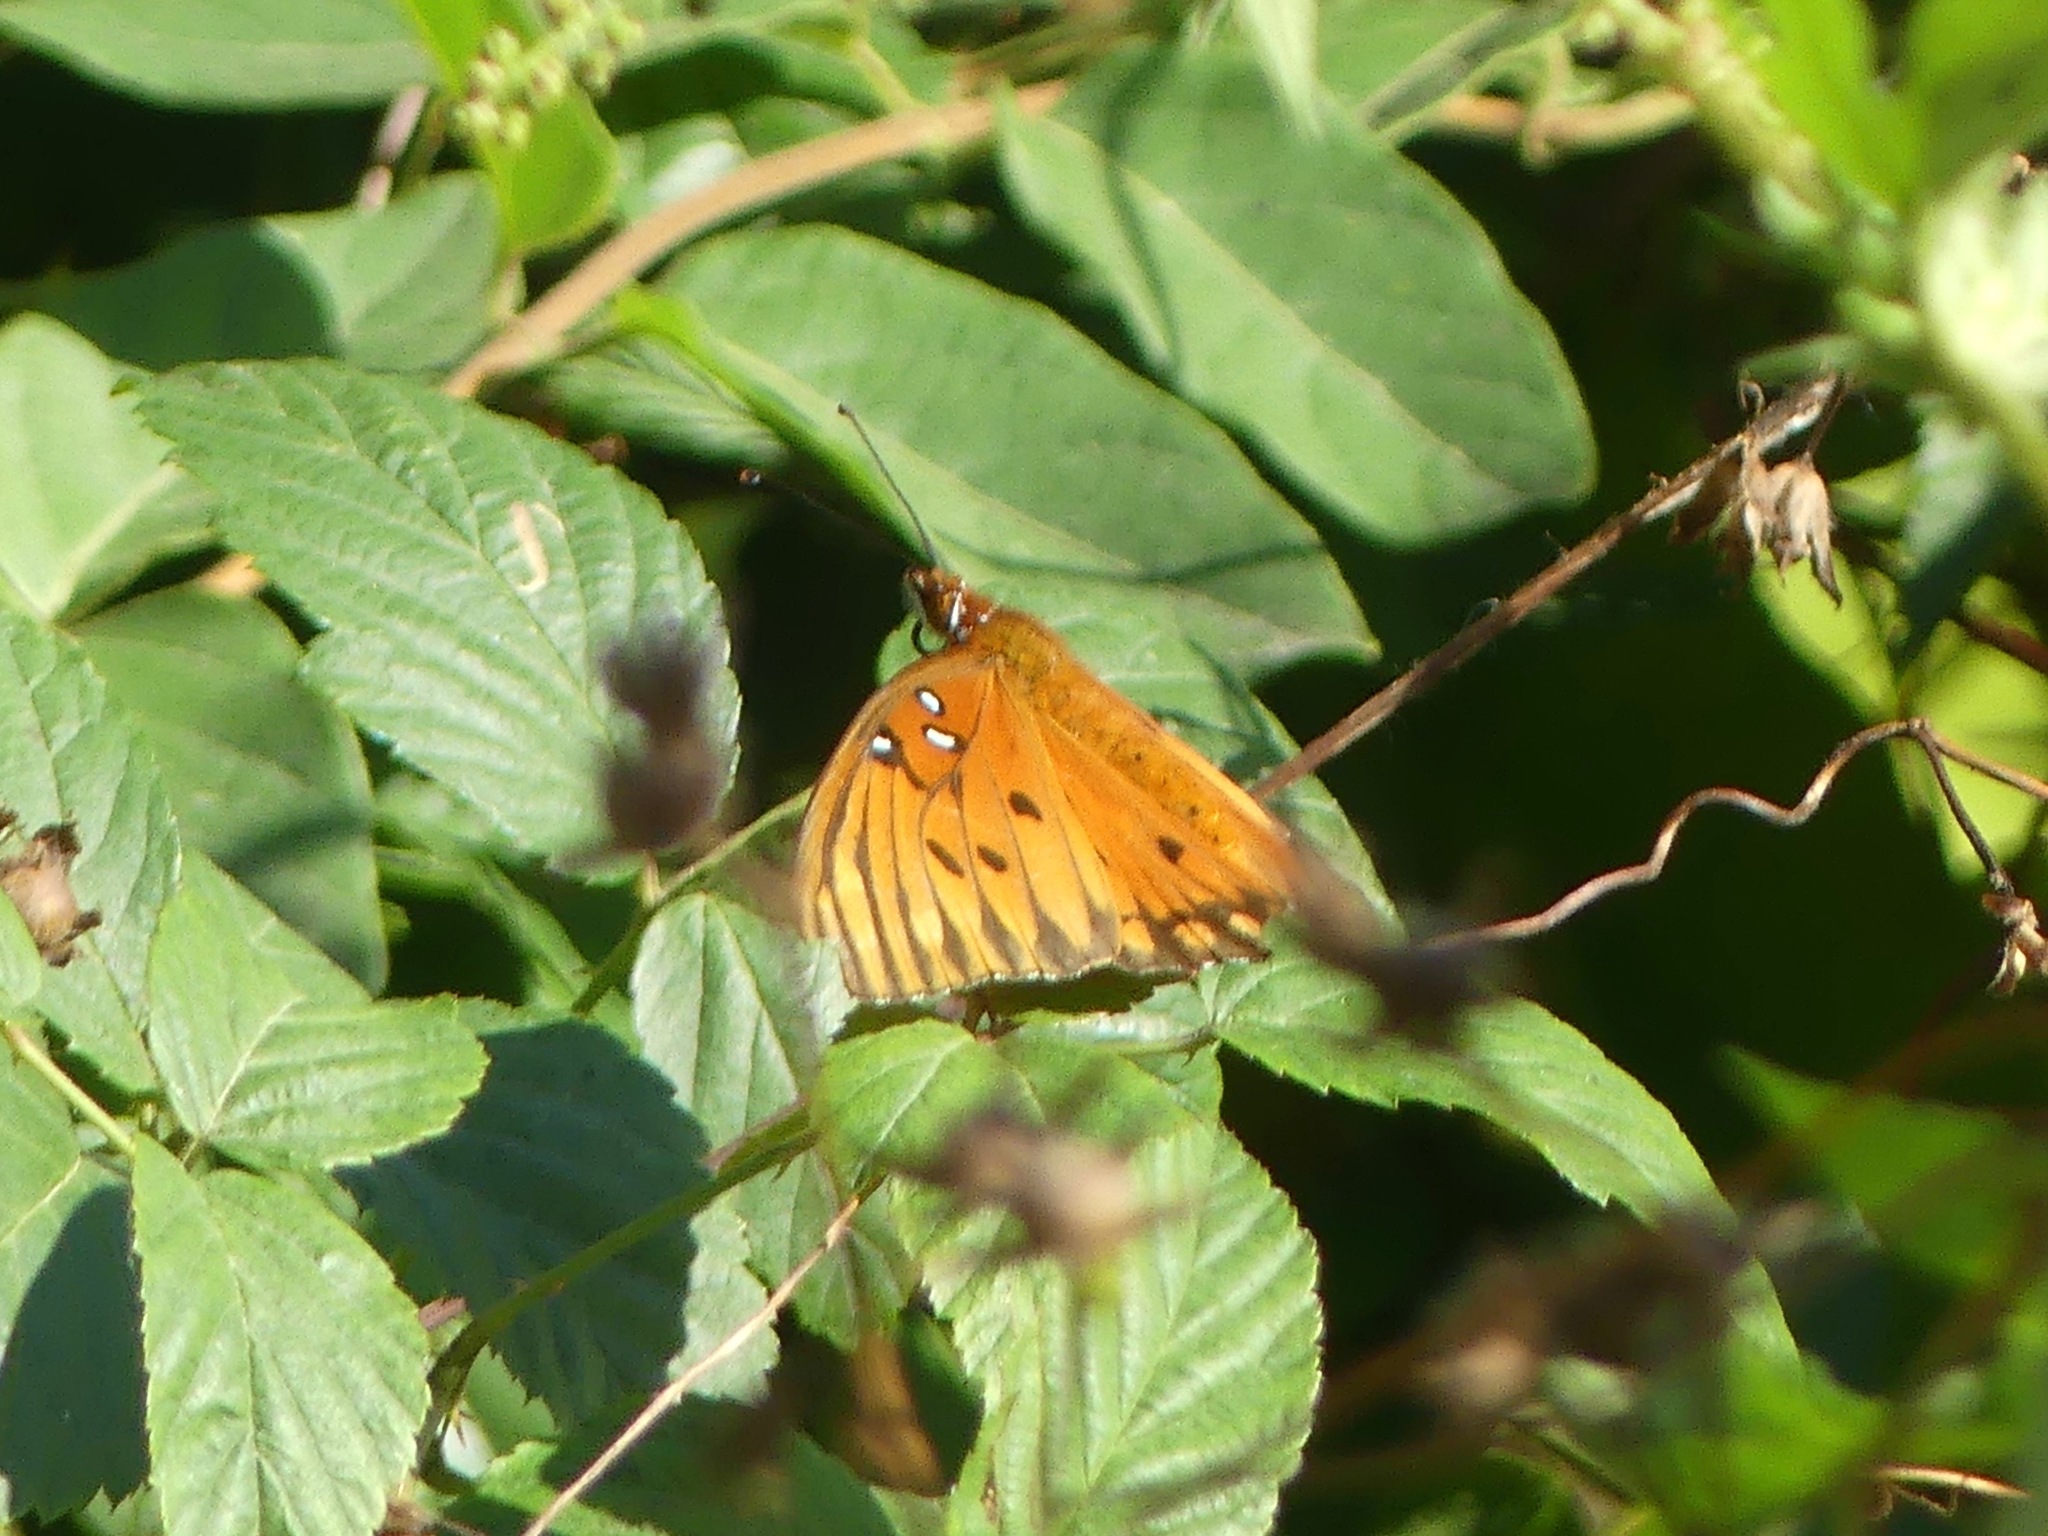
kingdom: Animalia
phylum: Arthropoda
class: Insecta
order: Lepidoptera
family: Nymphalidae
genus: Dione
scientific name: Dione vanillae
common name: Gulf fritillary
